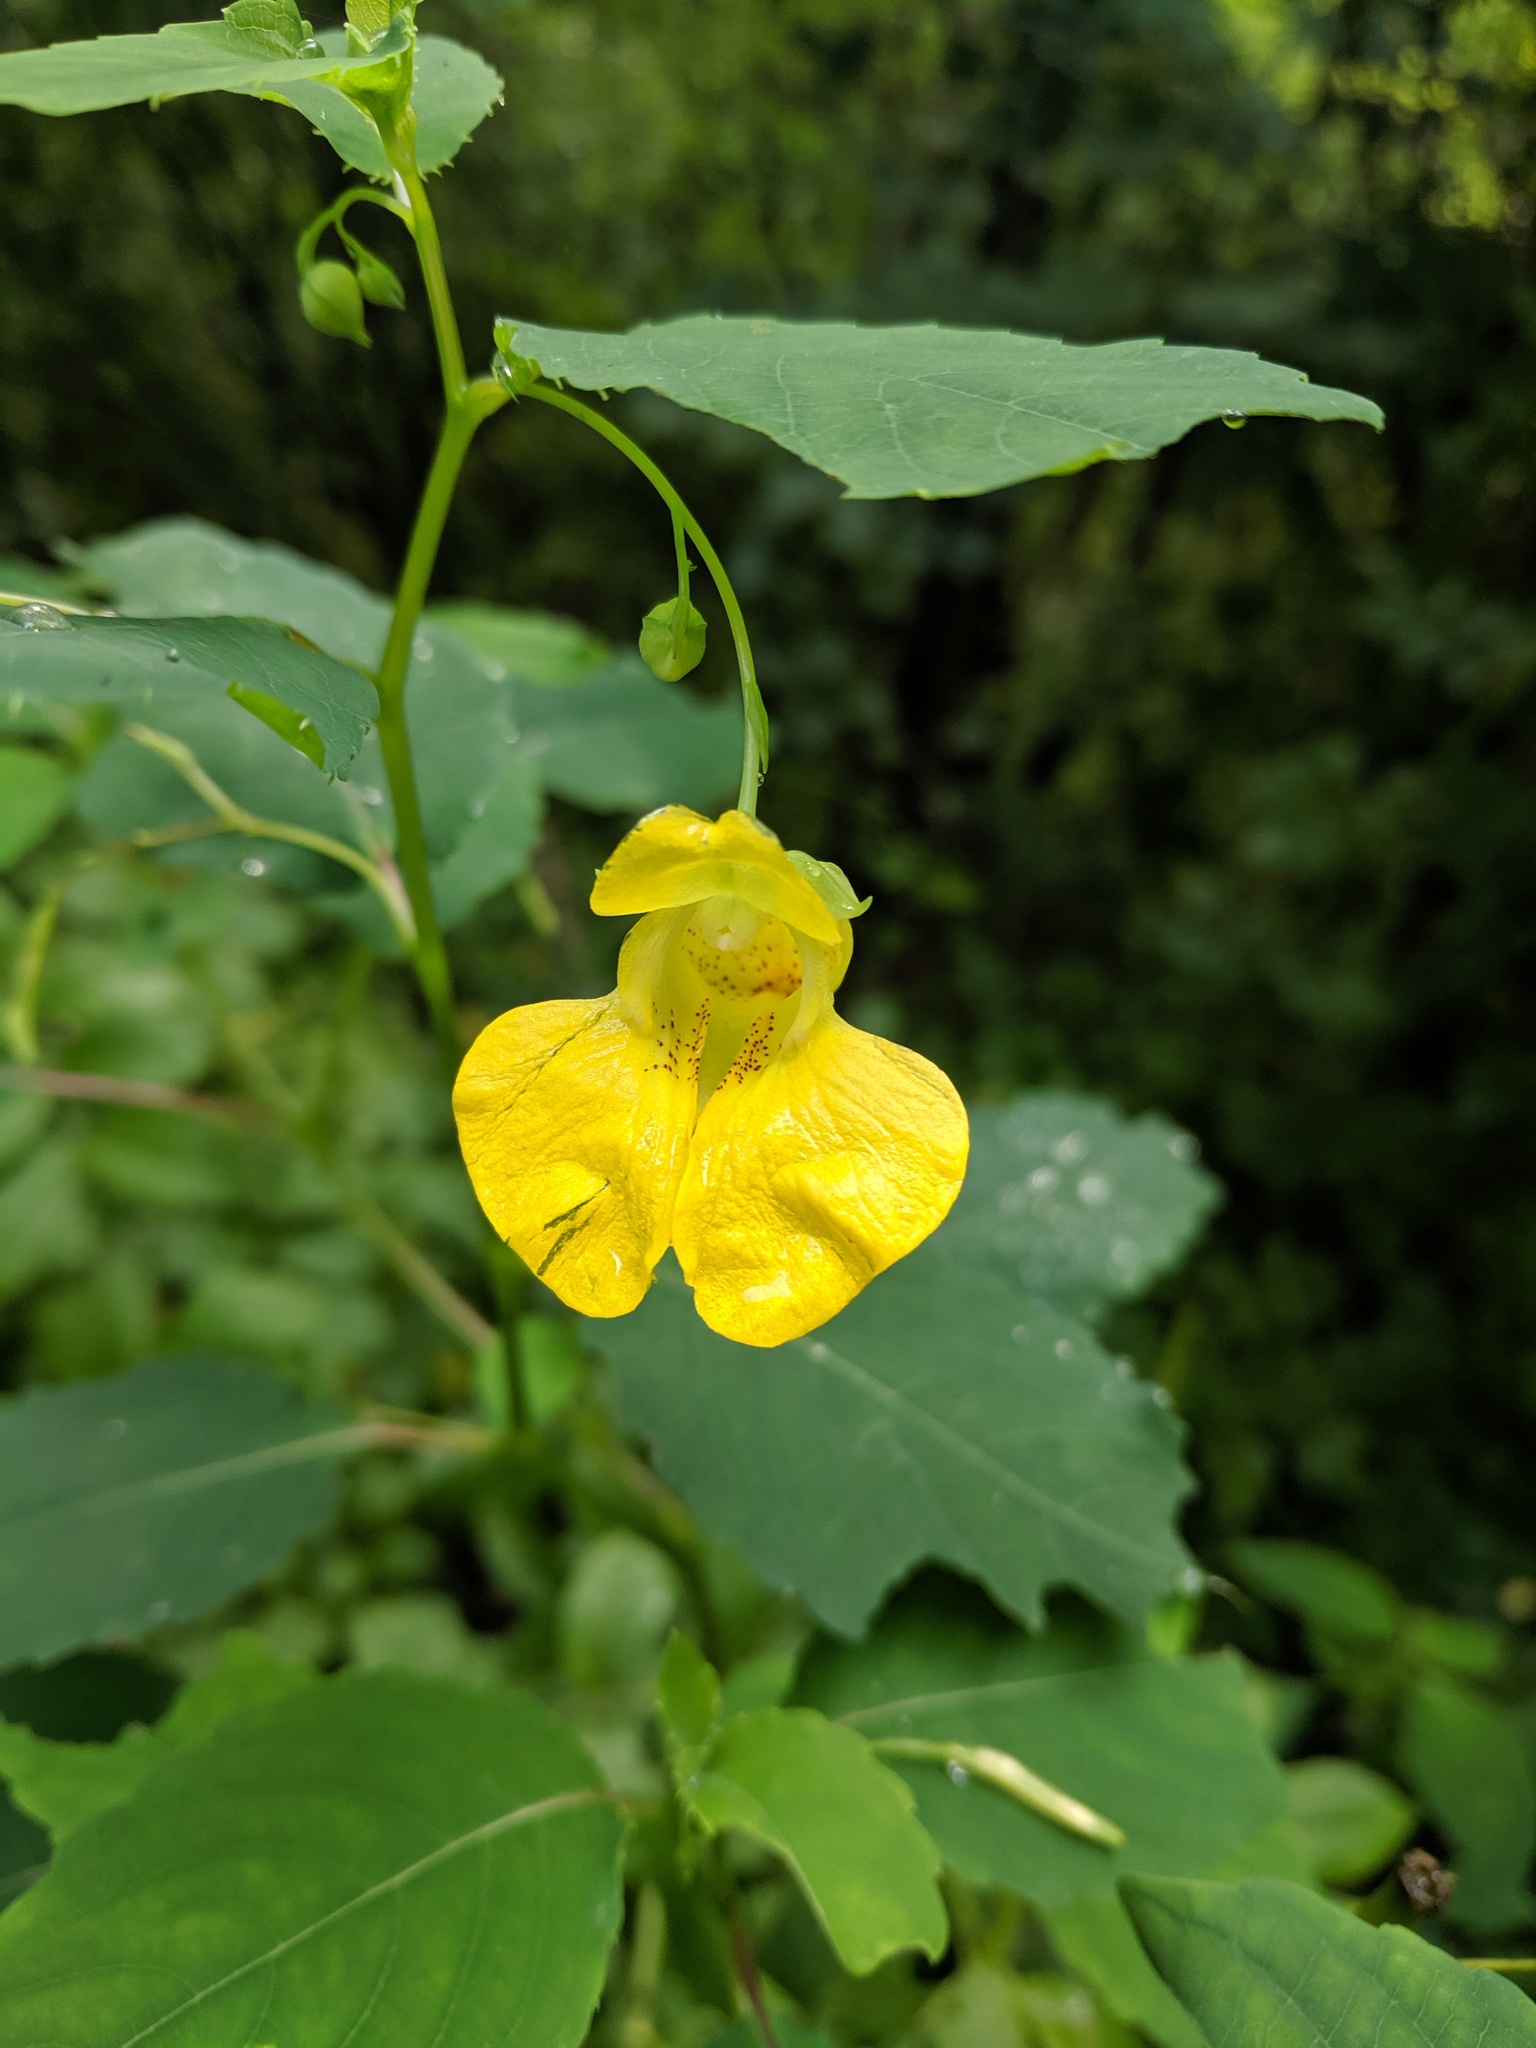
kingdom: Plantae
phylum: Tracheophyta
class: Magnoliopsida
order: Ericales
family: Balsaminaceae
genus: Impatiens
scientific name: Impatiens pallida
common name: Pale snapweed
